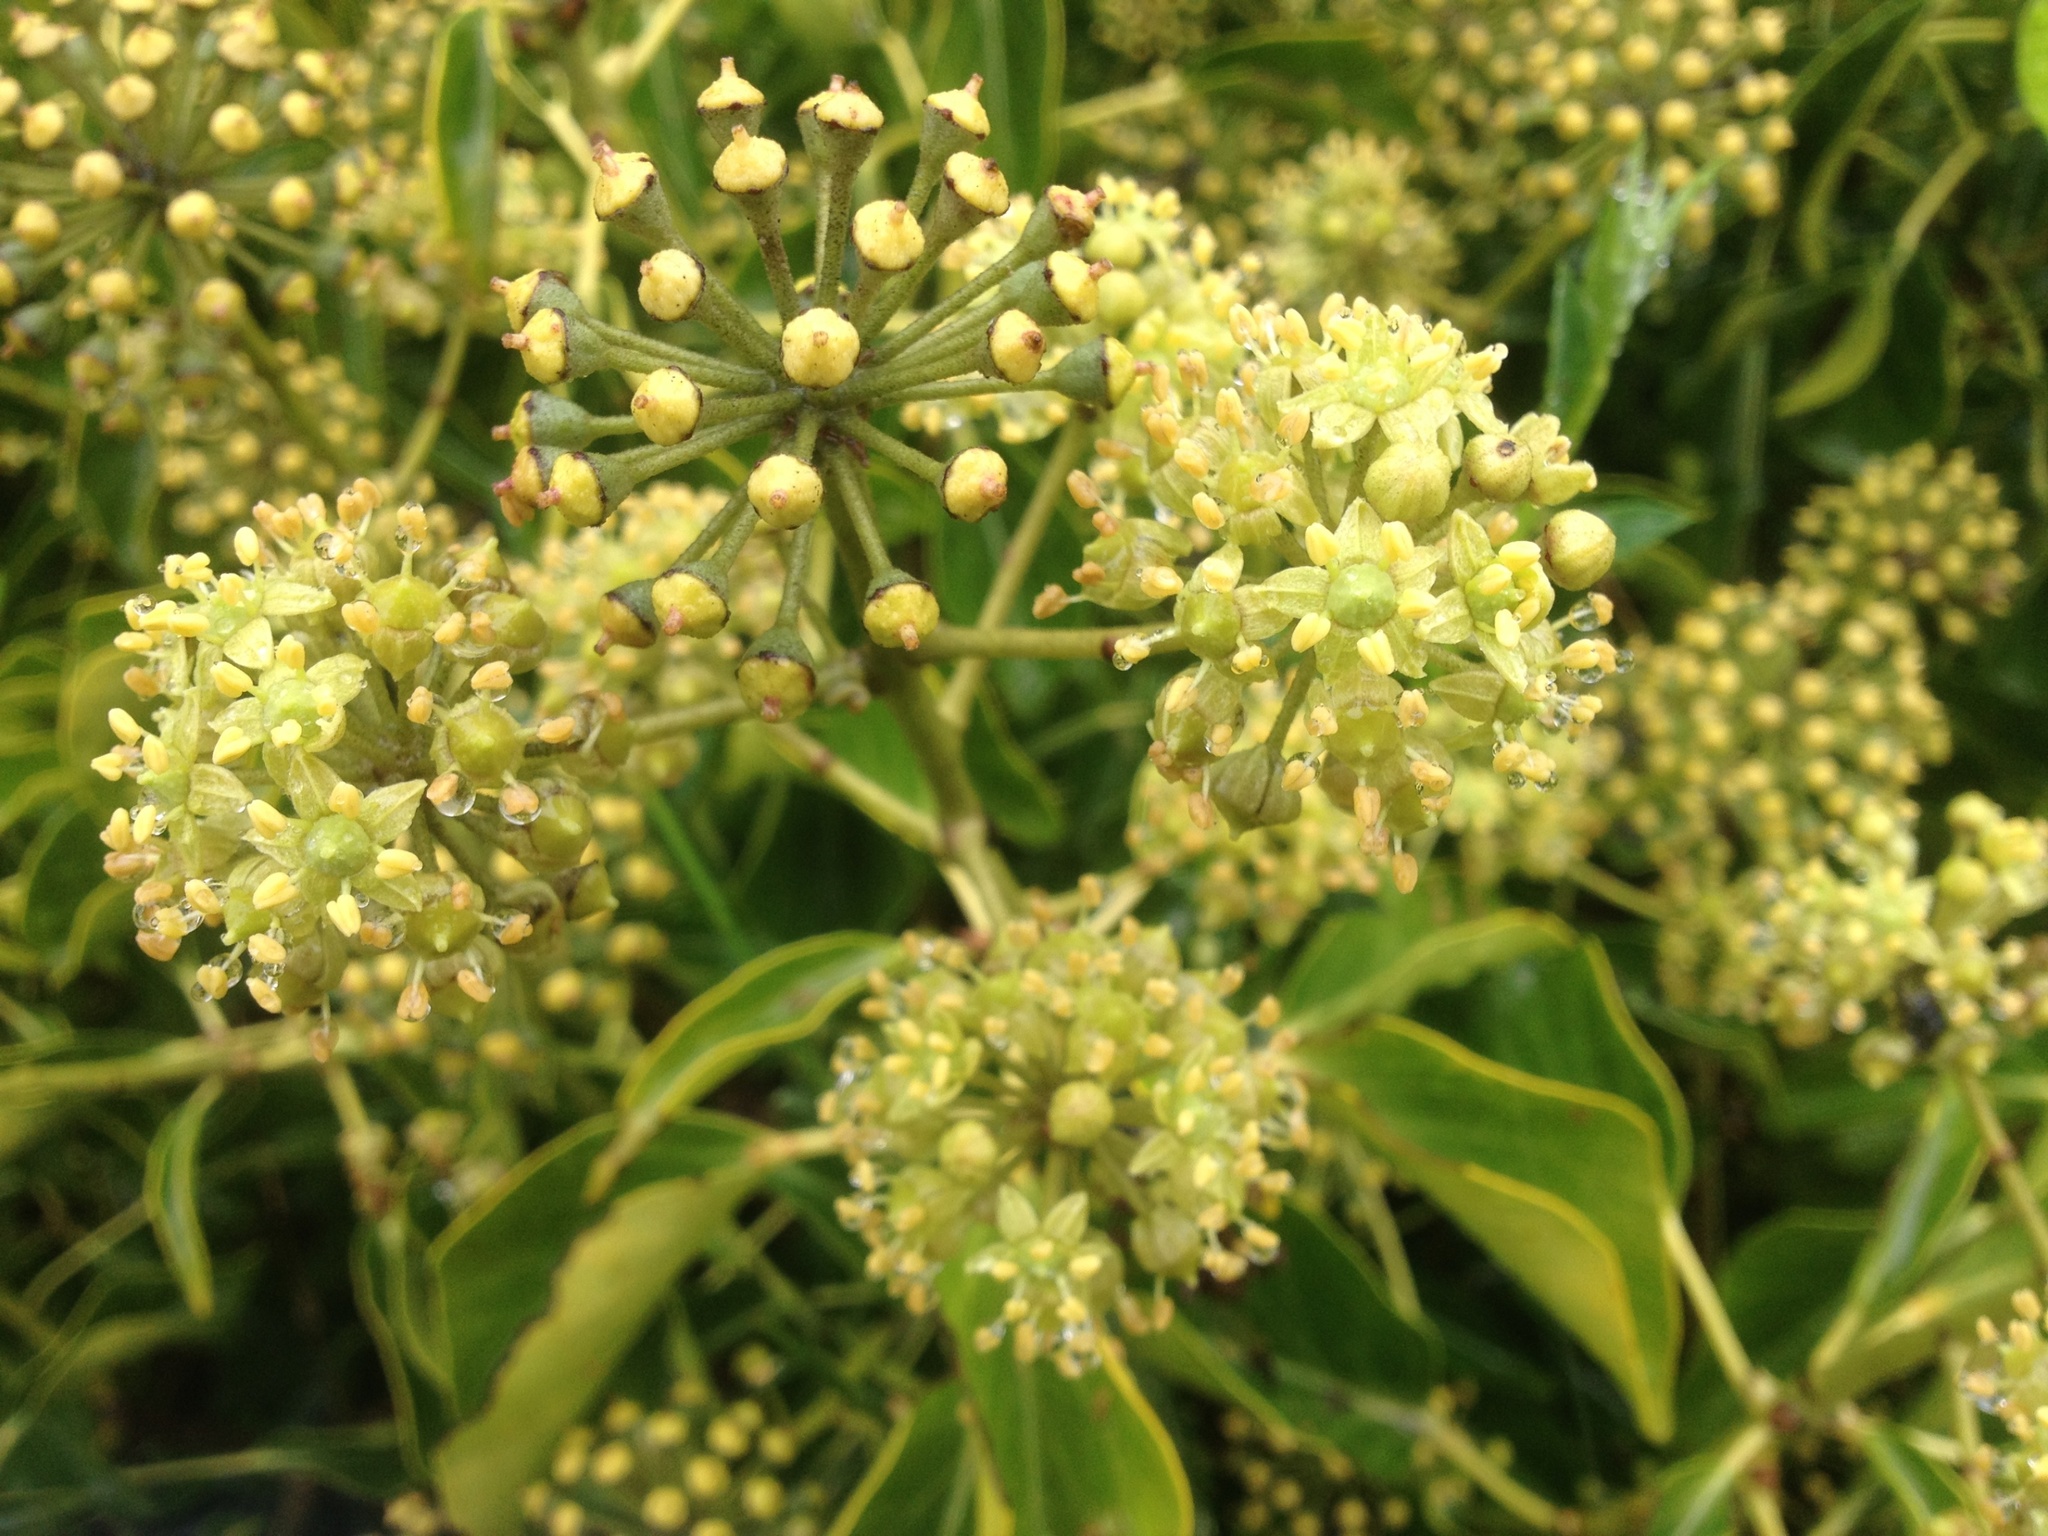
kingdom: Plantae
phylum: Tracheophyta
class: Magnoliopsida
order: Apiales
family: Araliaceae
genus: Hedera
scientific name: Hedera helix
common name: Ivy
